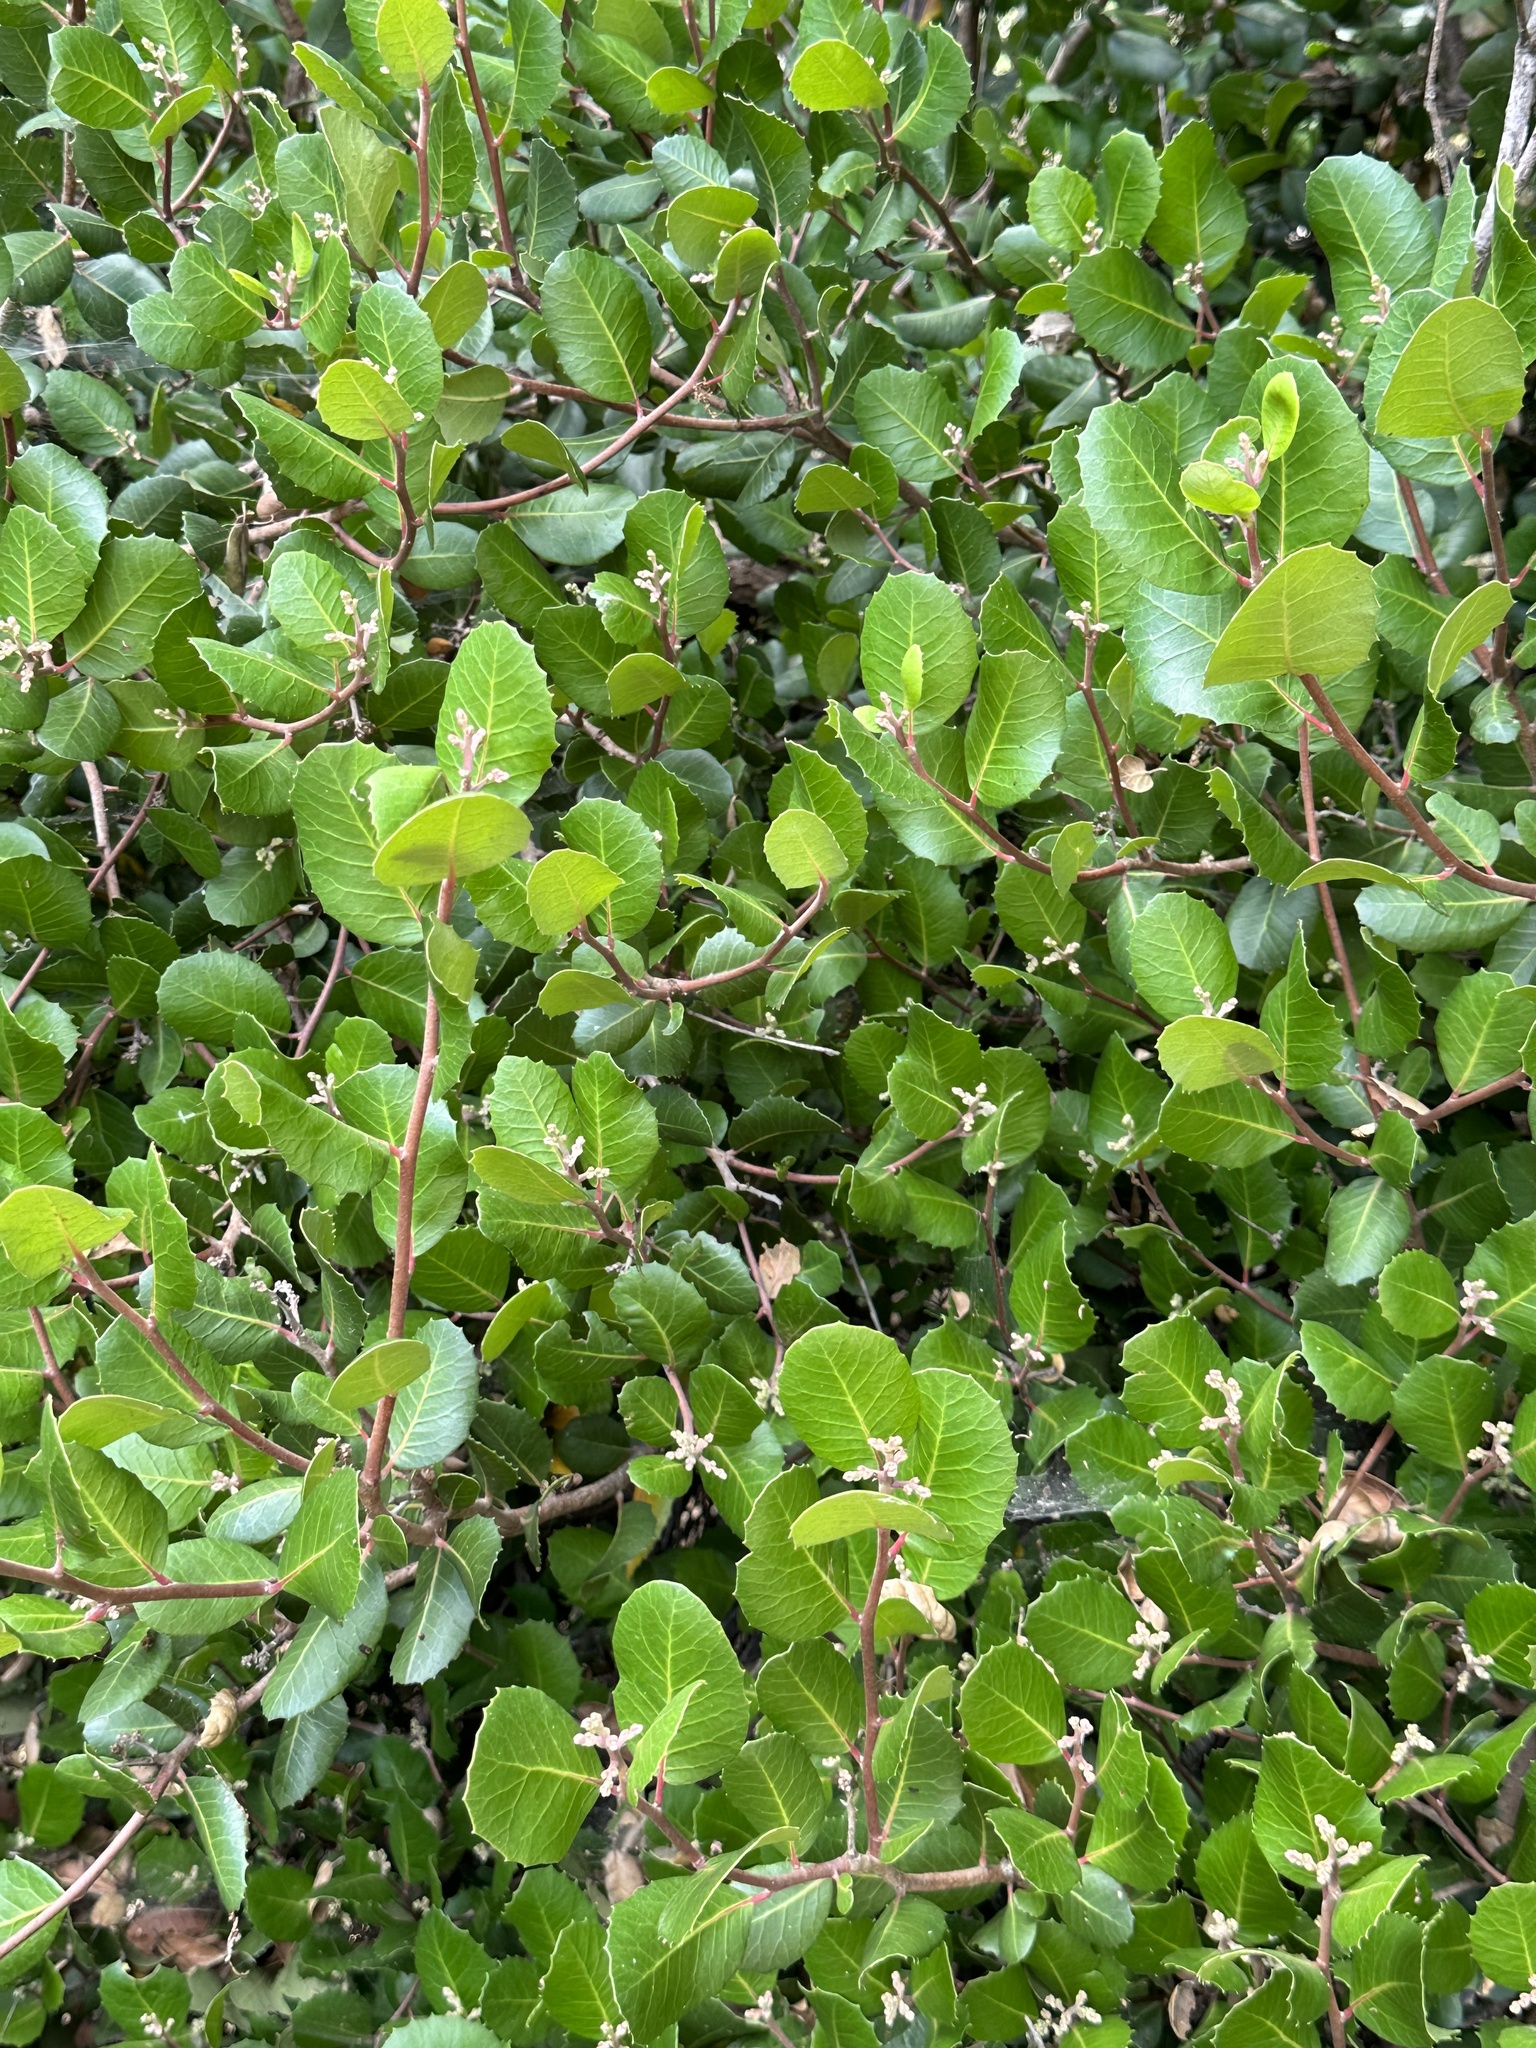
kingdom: Plantae
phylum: Tracheophyta
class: Magnoliopsida
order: Sapindales
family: Anacardiaceae
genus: Rhus
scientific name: Rhus integrifolia
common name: Lemonade sumac
